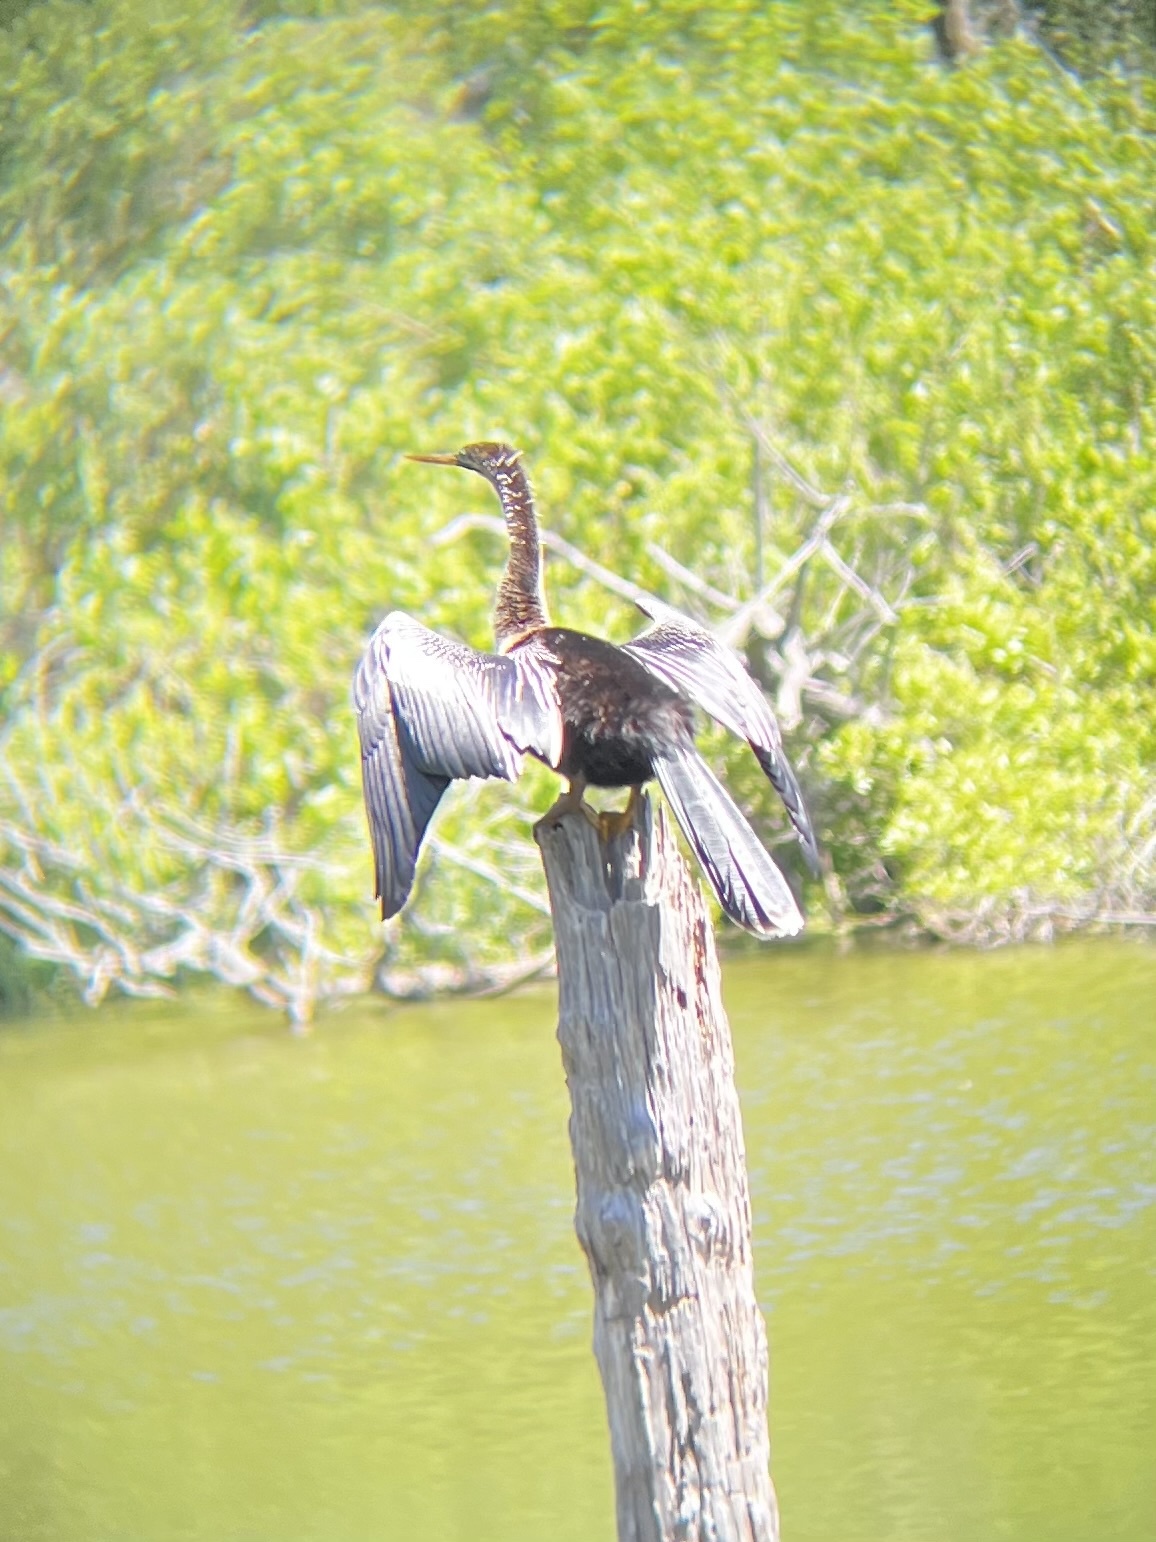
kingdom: Animalia
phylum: Chordata
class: Aves
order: Suliformes
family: Anhingidae
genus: Anhinga
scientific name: Anhinga anhinga
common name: Anhinga
